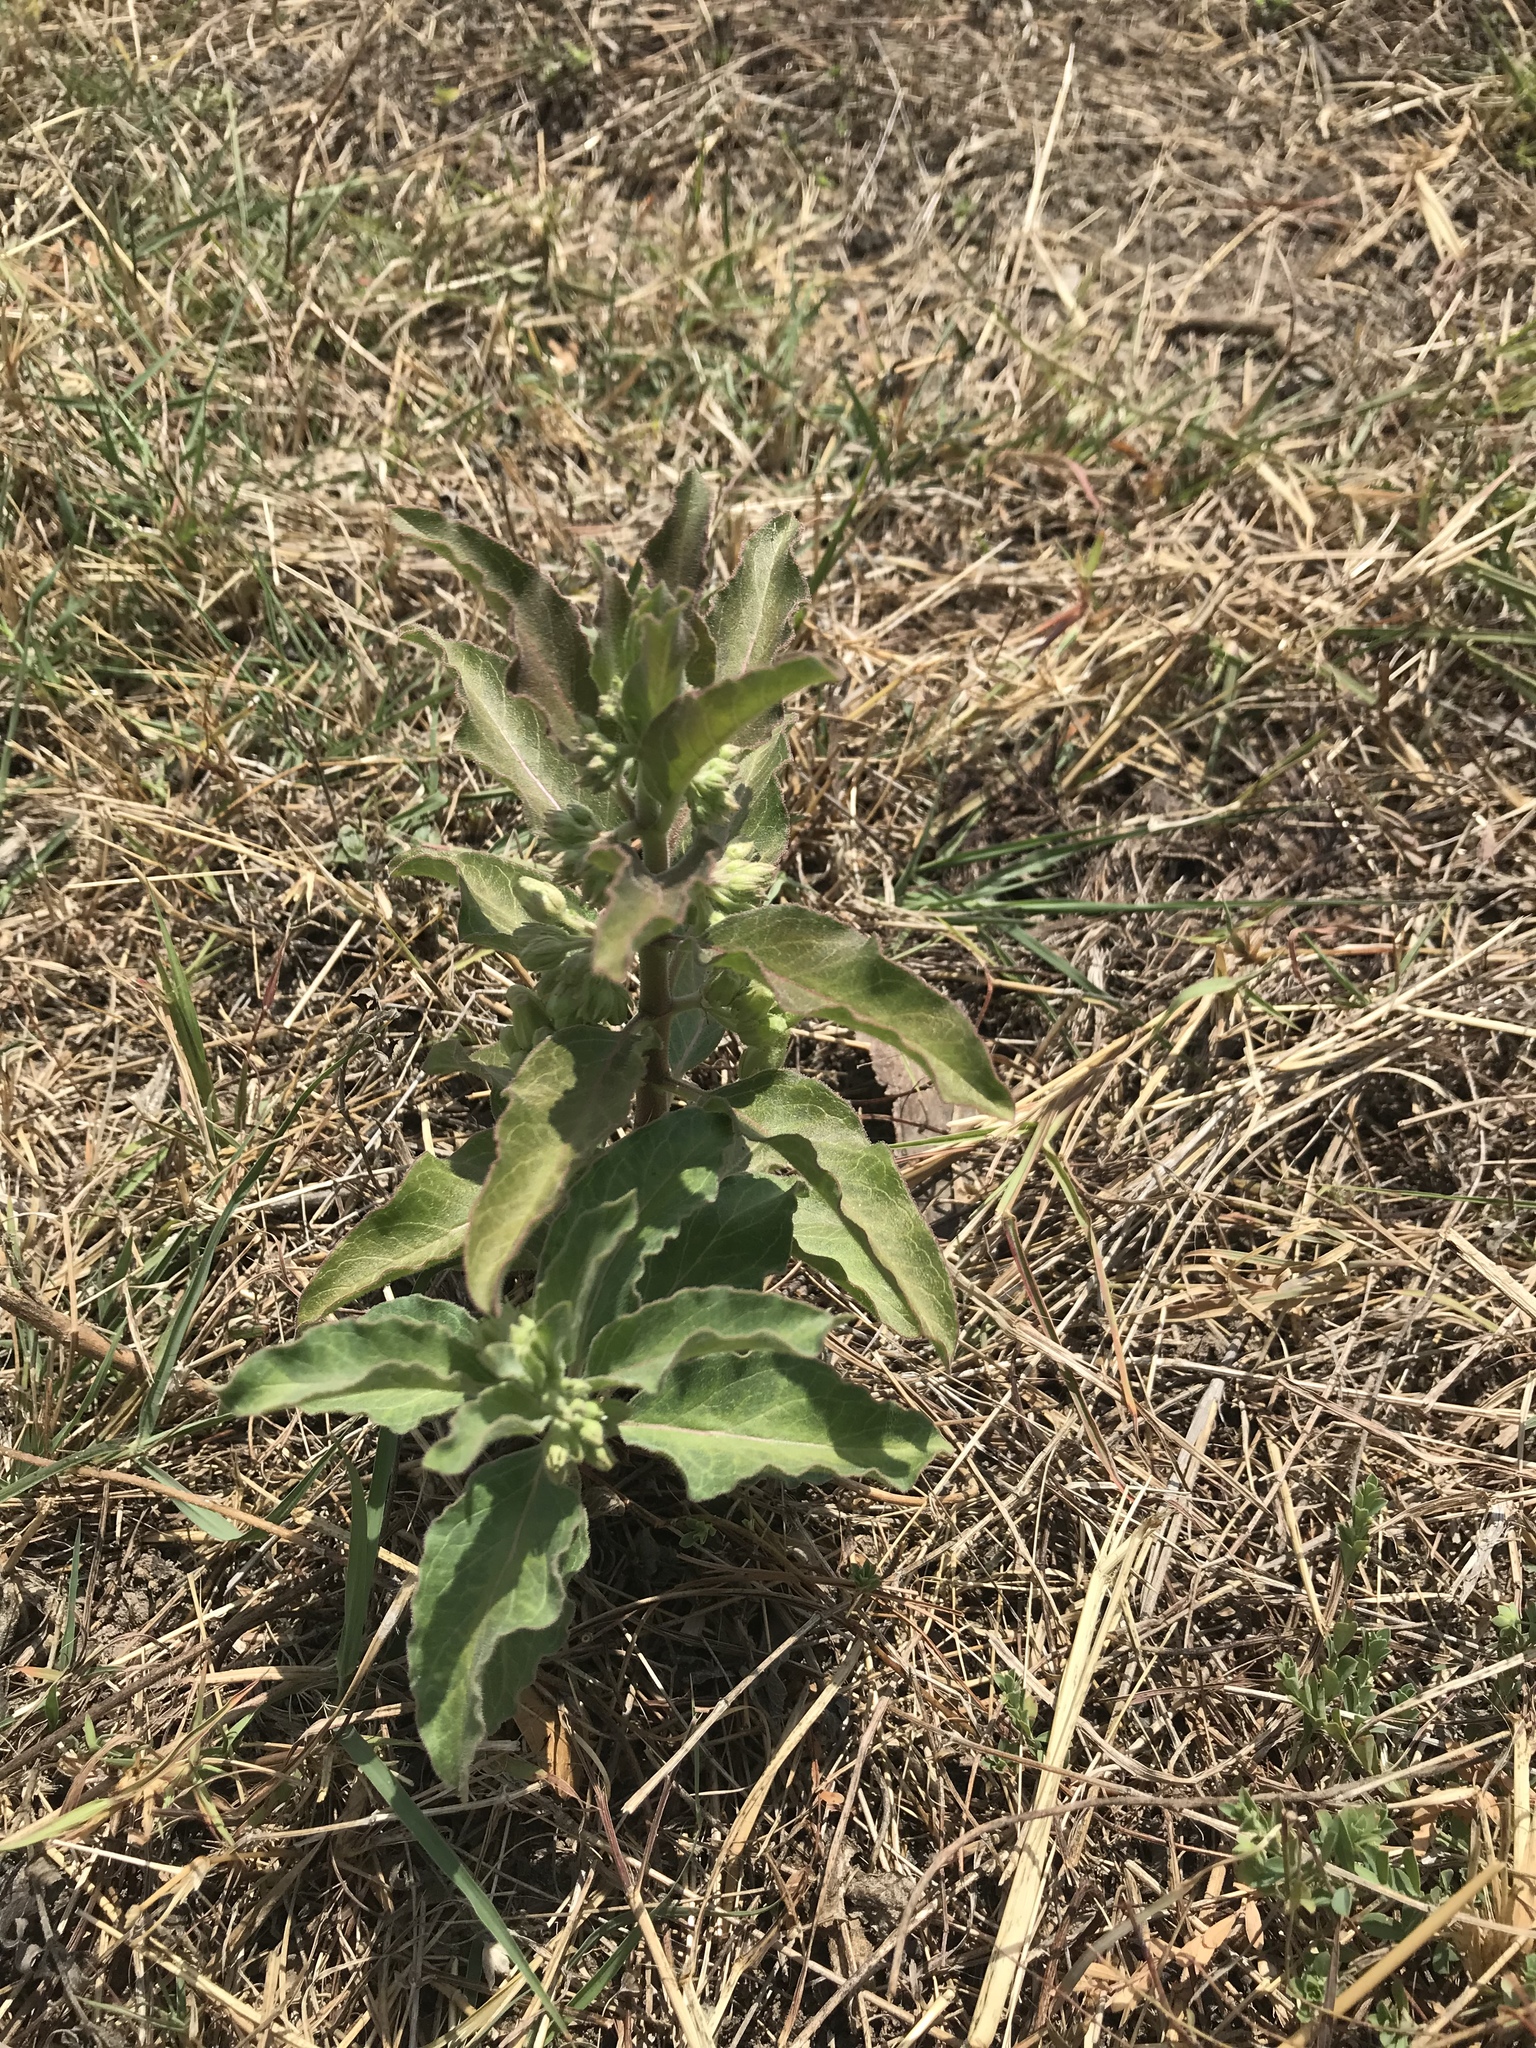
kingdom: Plantae
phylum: Tracheophyta
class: Magnoliopsida
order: Gentianales
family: Apocynaceae
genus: Asclepias
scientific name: Asclepias oenotheroides
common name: Zizotes milkweed
